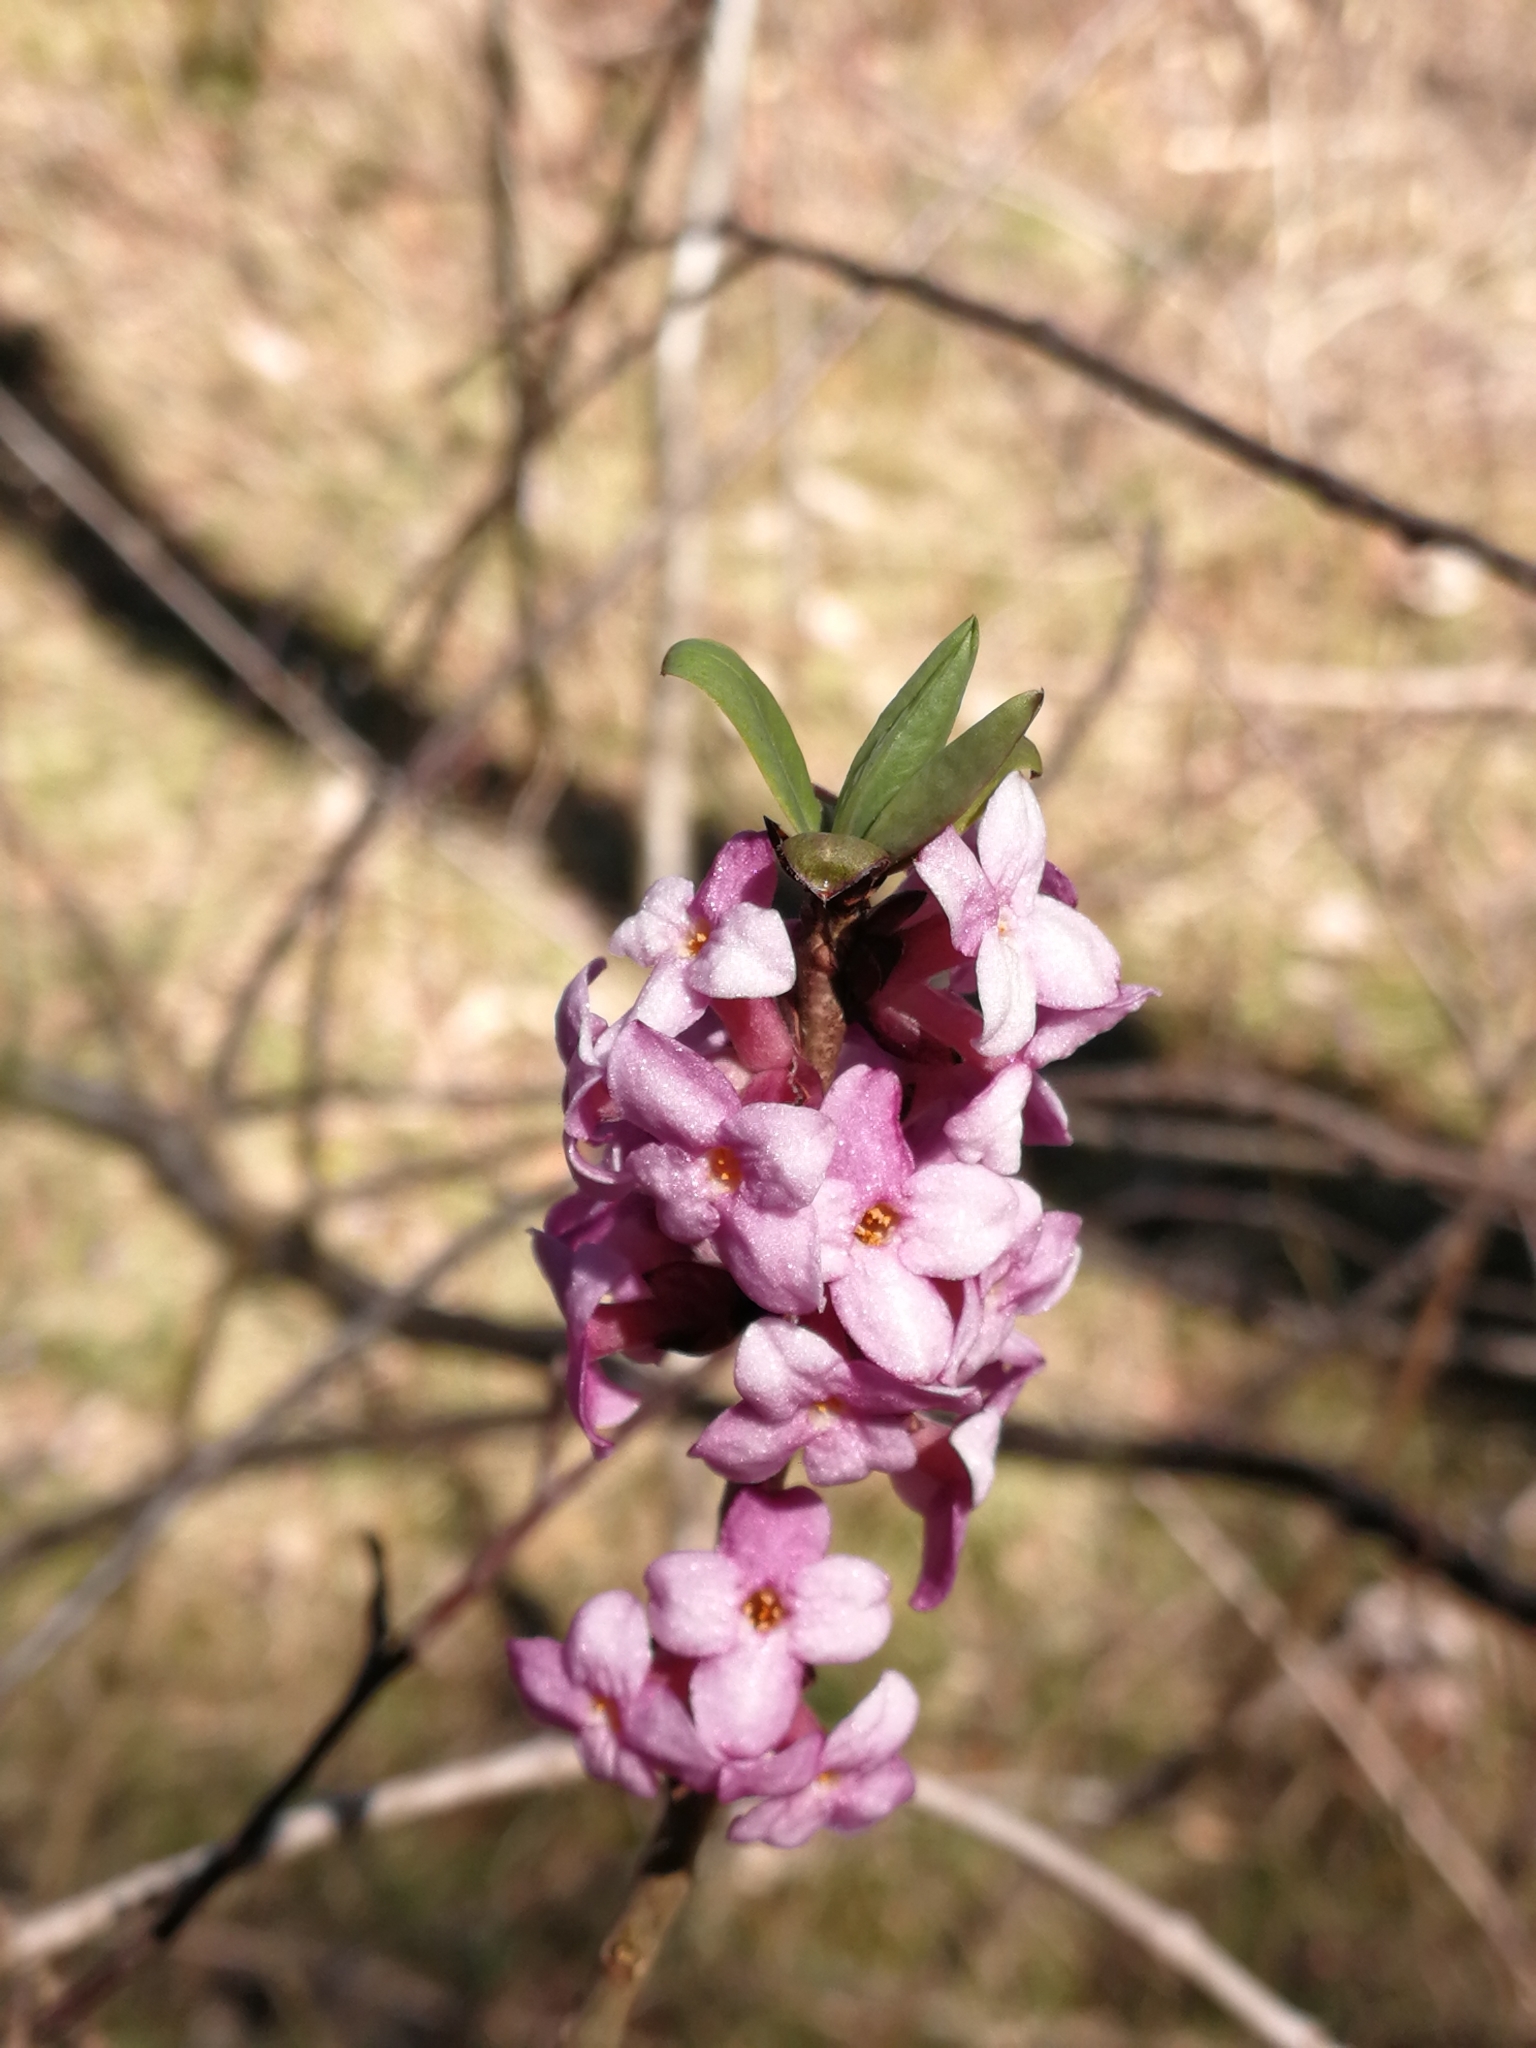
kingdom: Plantae
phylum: Tracheophyta
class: Magnoliopsida
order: Malvales
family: Thymelaeaceae
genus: Daphne
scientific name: Daphne mezereum
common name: Mezereon
